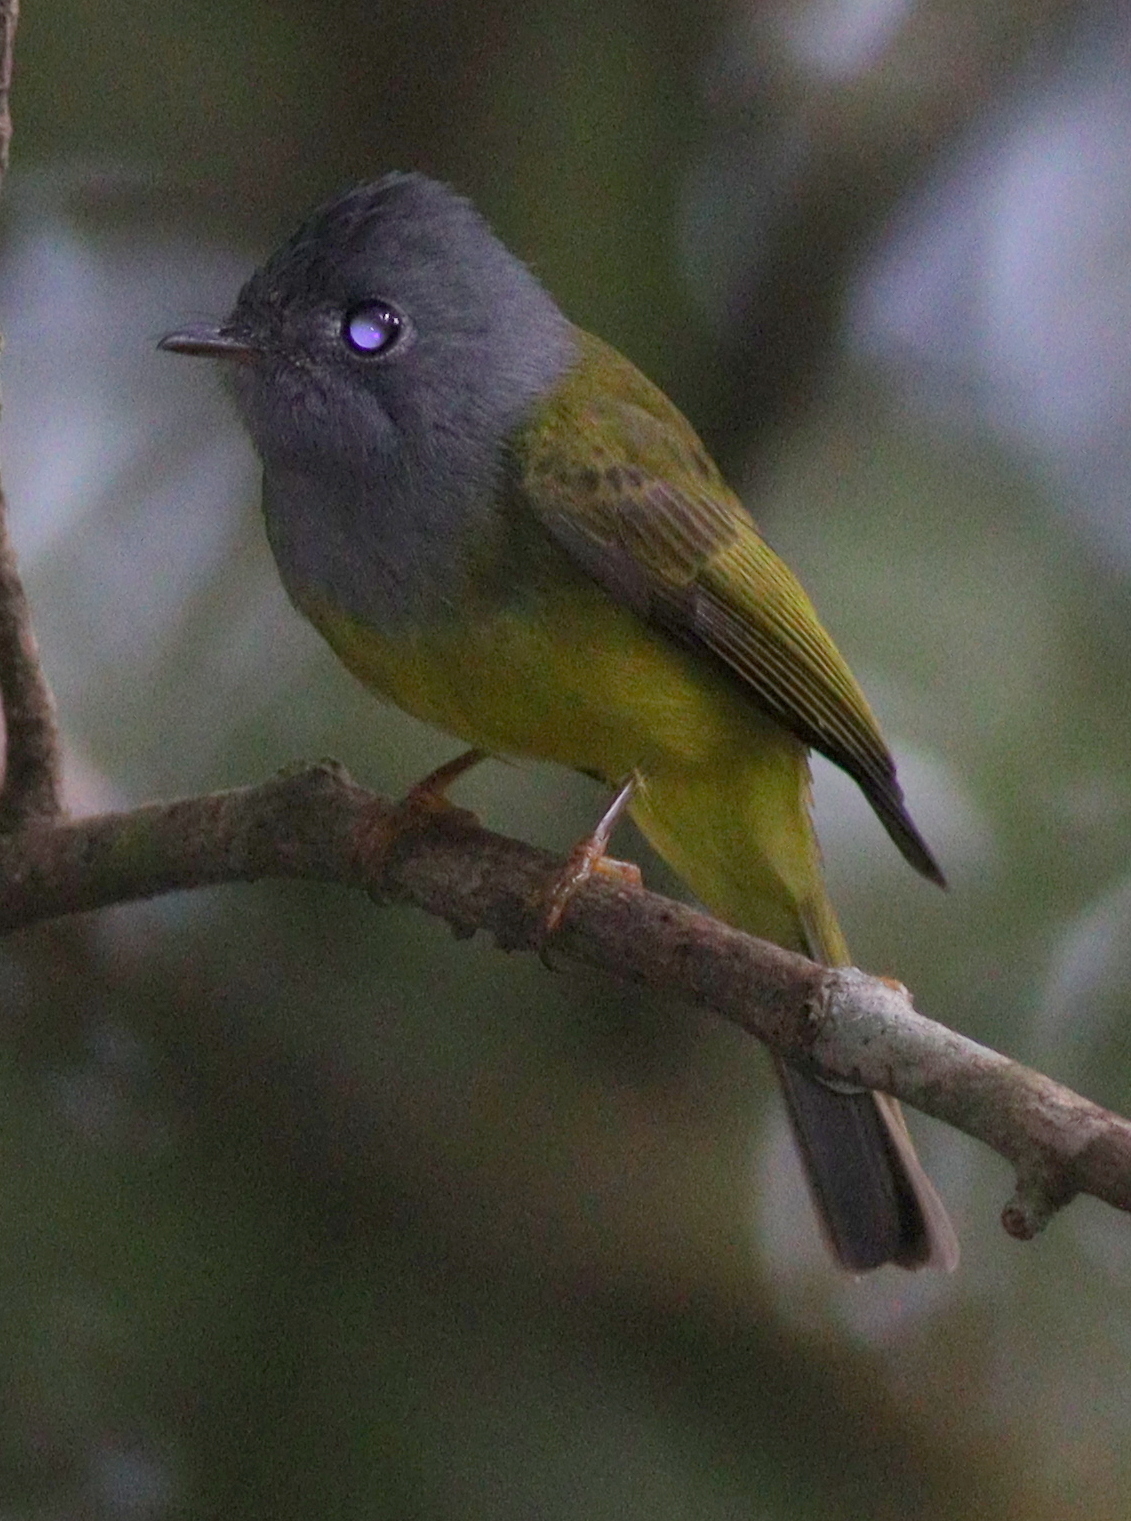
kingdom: Animalia
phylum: Chordata
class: Aves
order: Passeriformes
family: Stenostiridae
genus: Culicicapa
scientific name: Culicicapa ceylonensis
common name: Grey-headed canary-flycatcher
